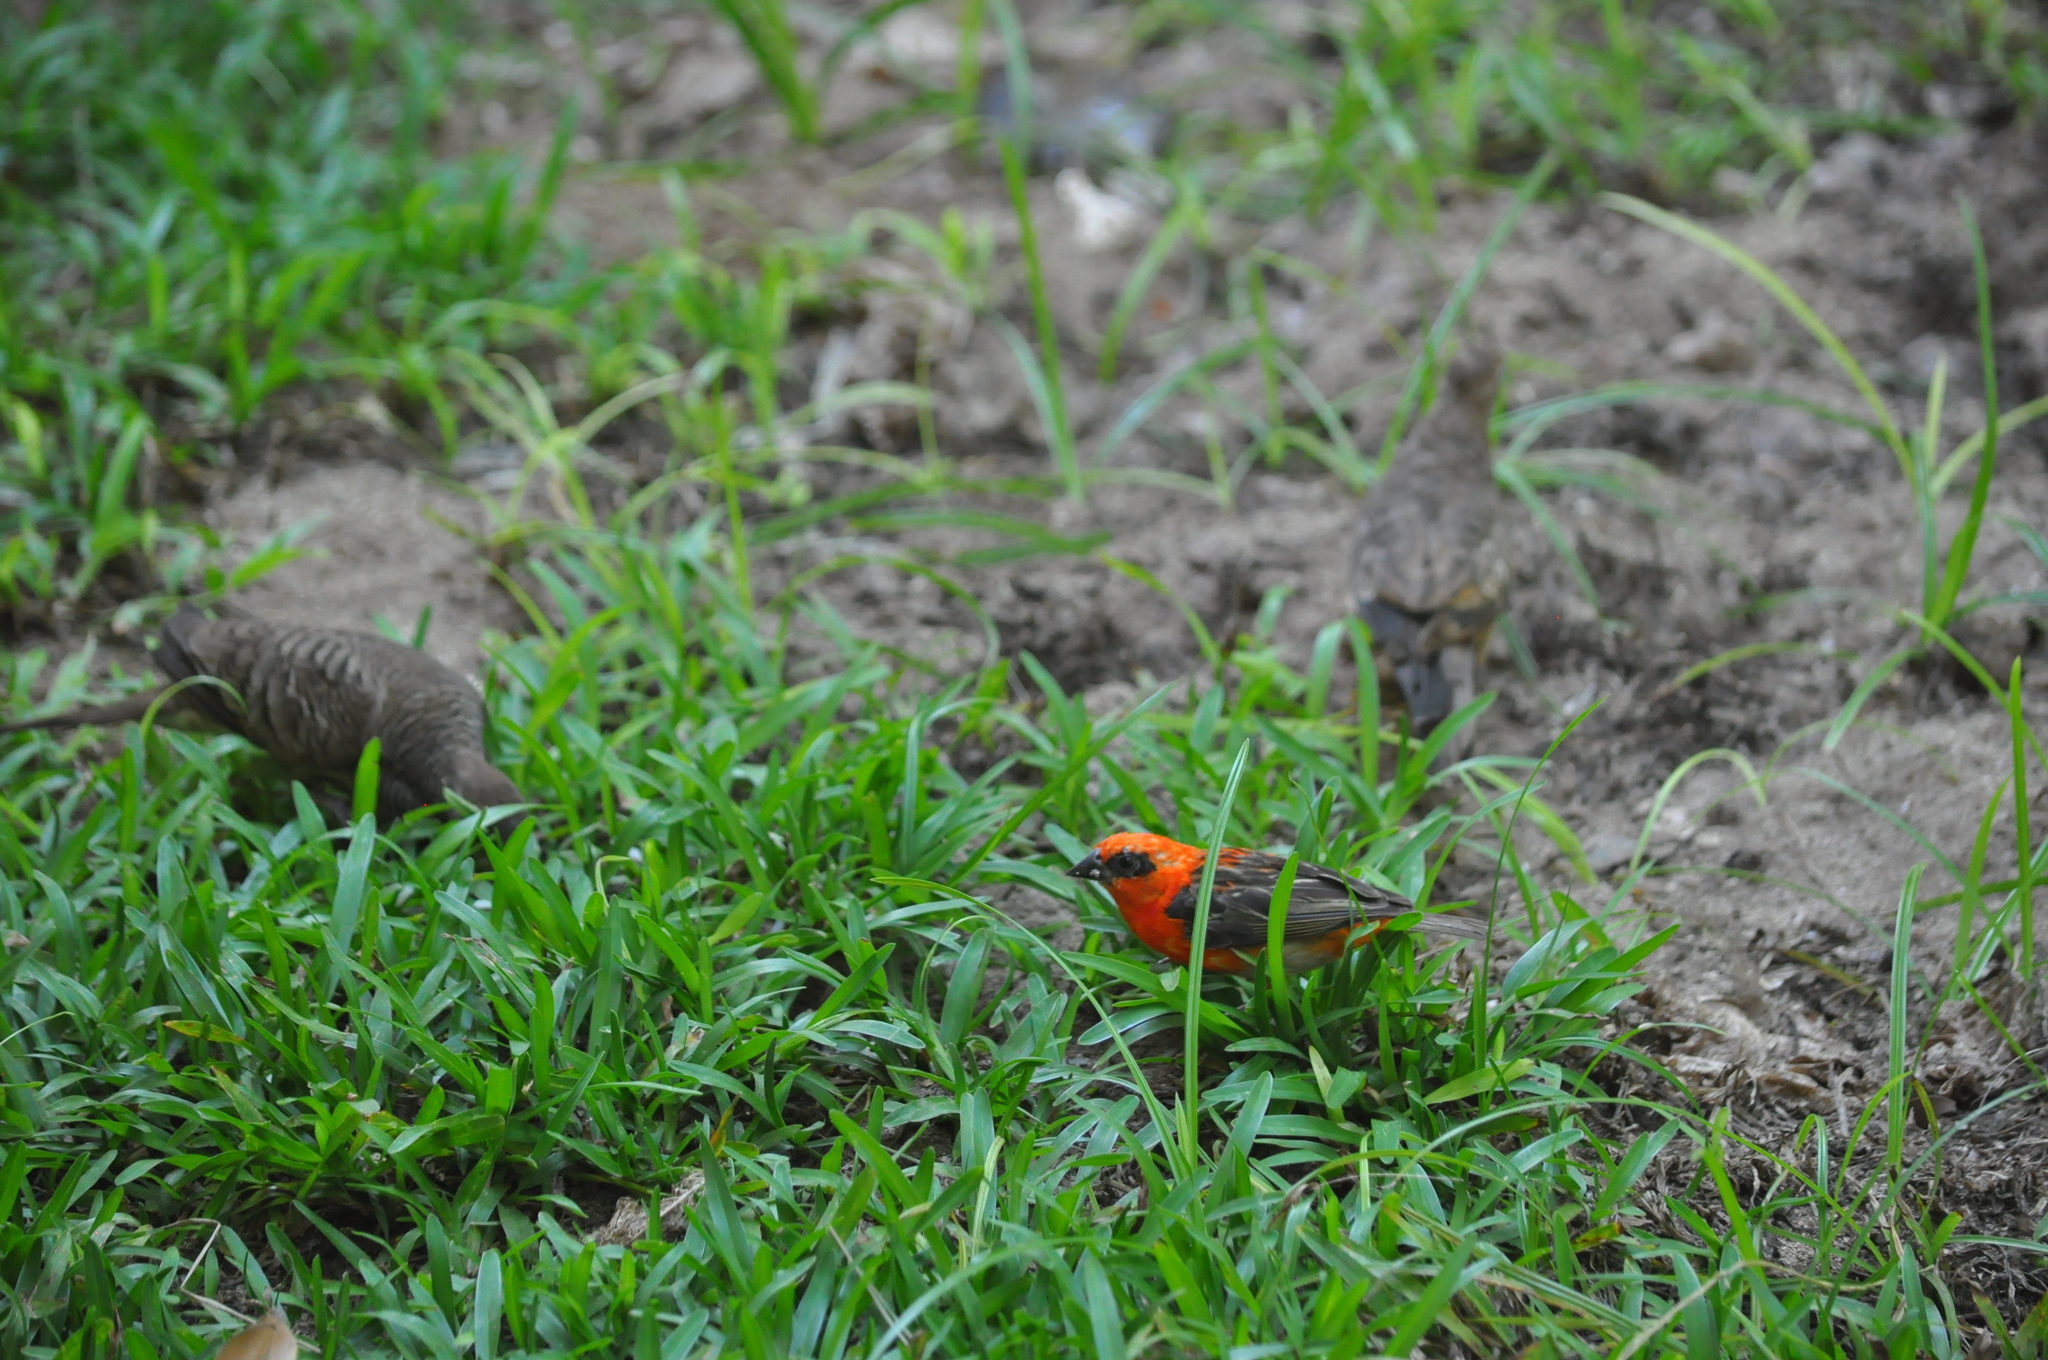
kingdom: Animalia
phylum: Chordata
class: Aves
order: Passeriformes
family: Ploceidae
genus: Foudia
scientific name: Foudia madagascariensis
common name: Red fody
